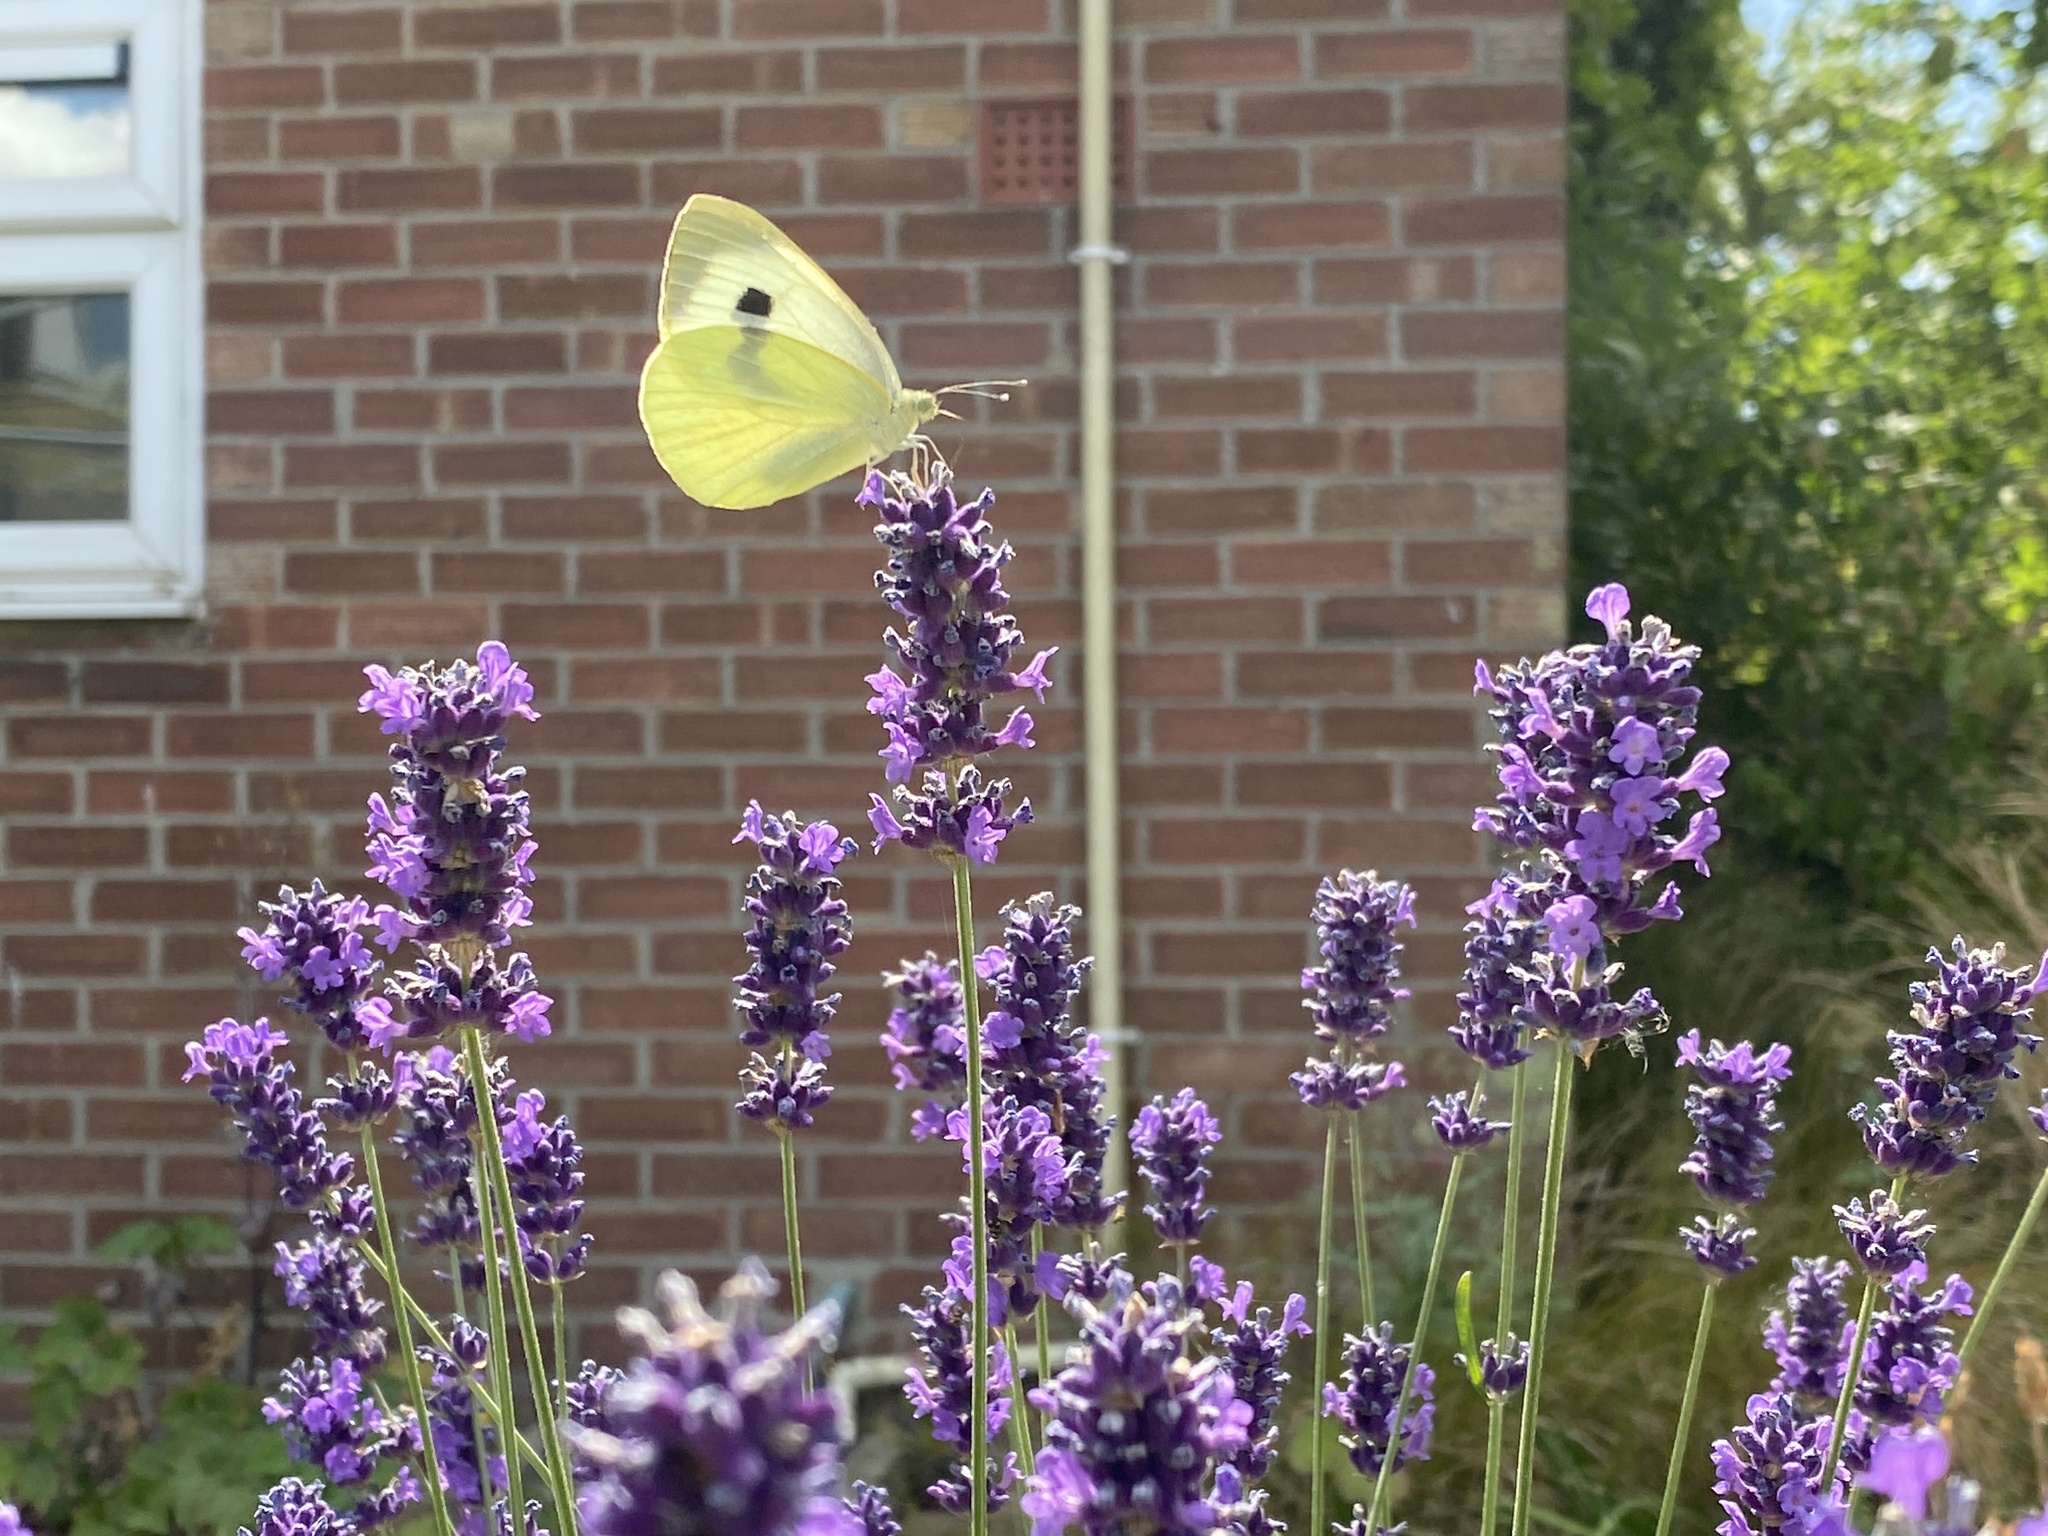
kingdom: Animalia
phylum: Arthropoda
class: Insecta
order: Lepidoptera
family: Pieridae
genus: Pieris
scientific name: Pieris brassicae
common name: Large white
